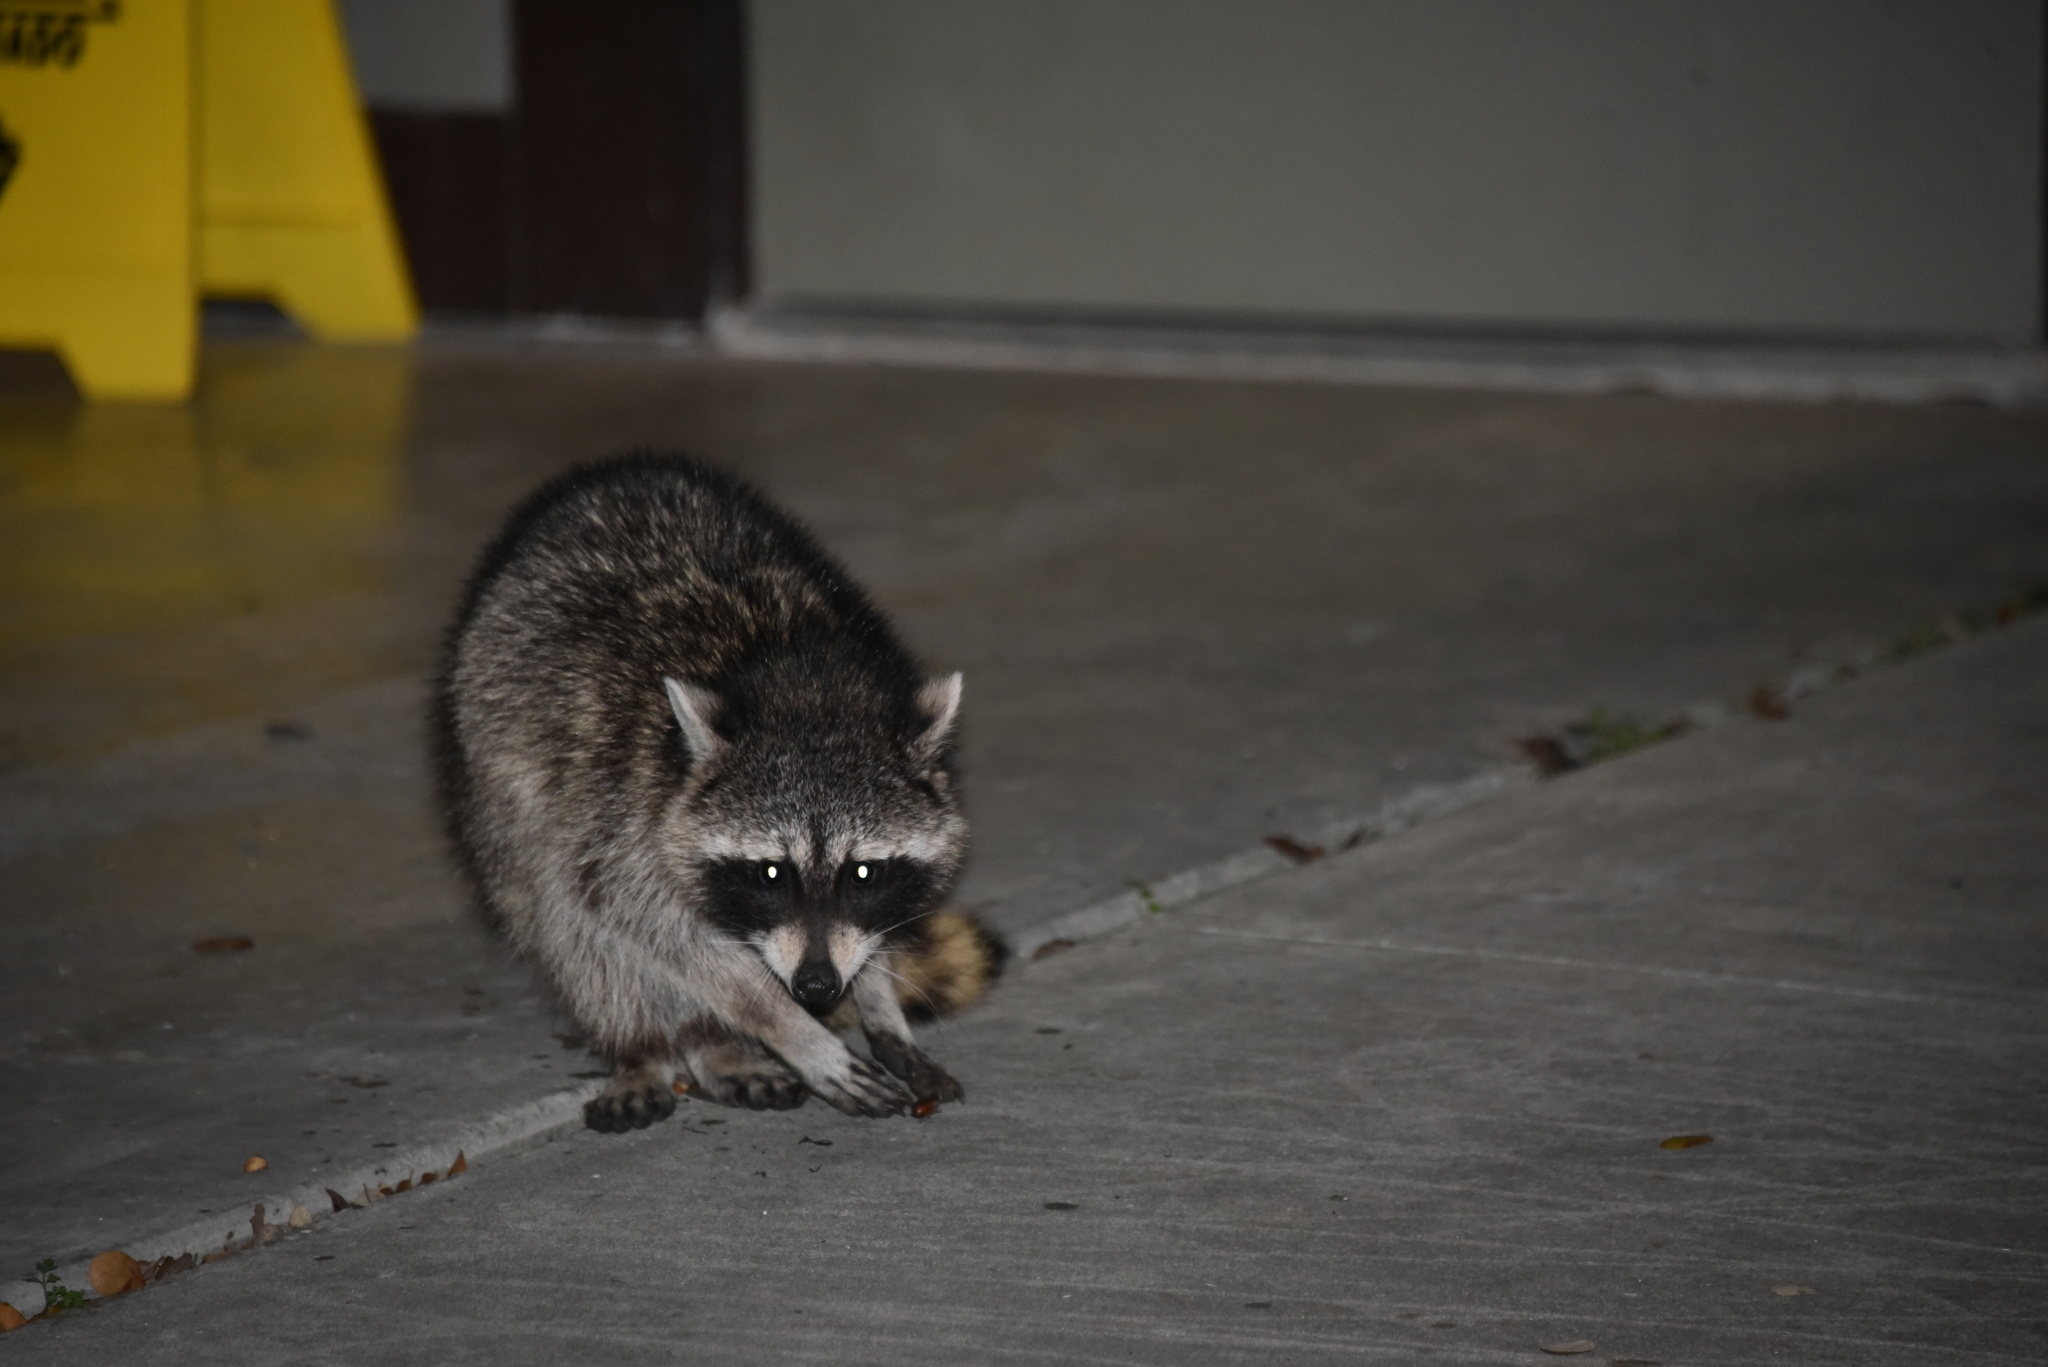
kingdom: Animalia
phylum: Chordata
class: Mammalia
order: Carnivora
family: Procyonidae
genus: Procyon
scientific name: Procyon lotor
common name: Raccoon
